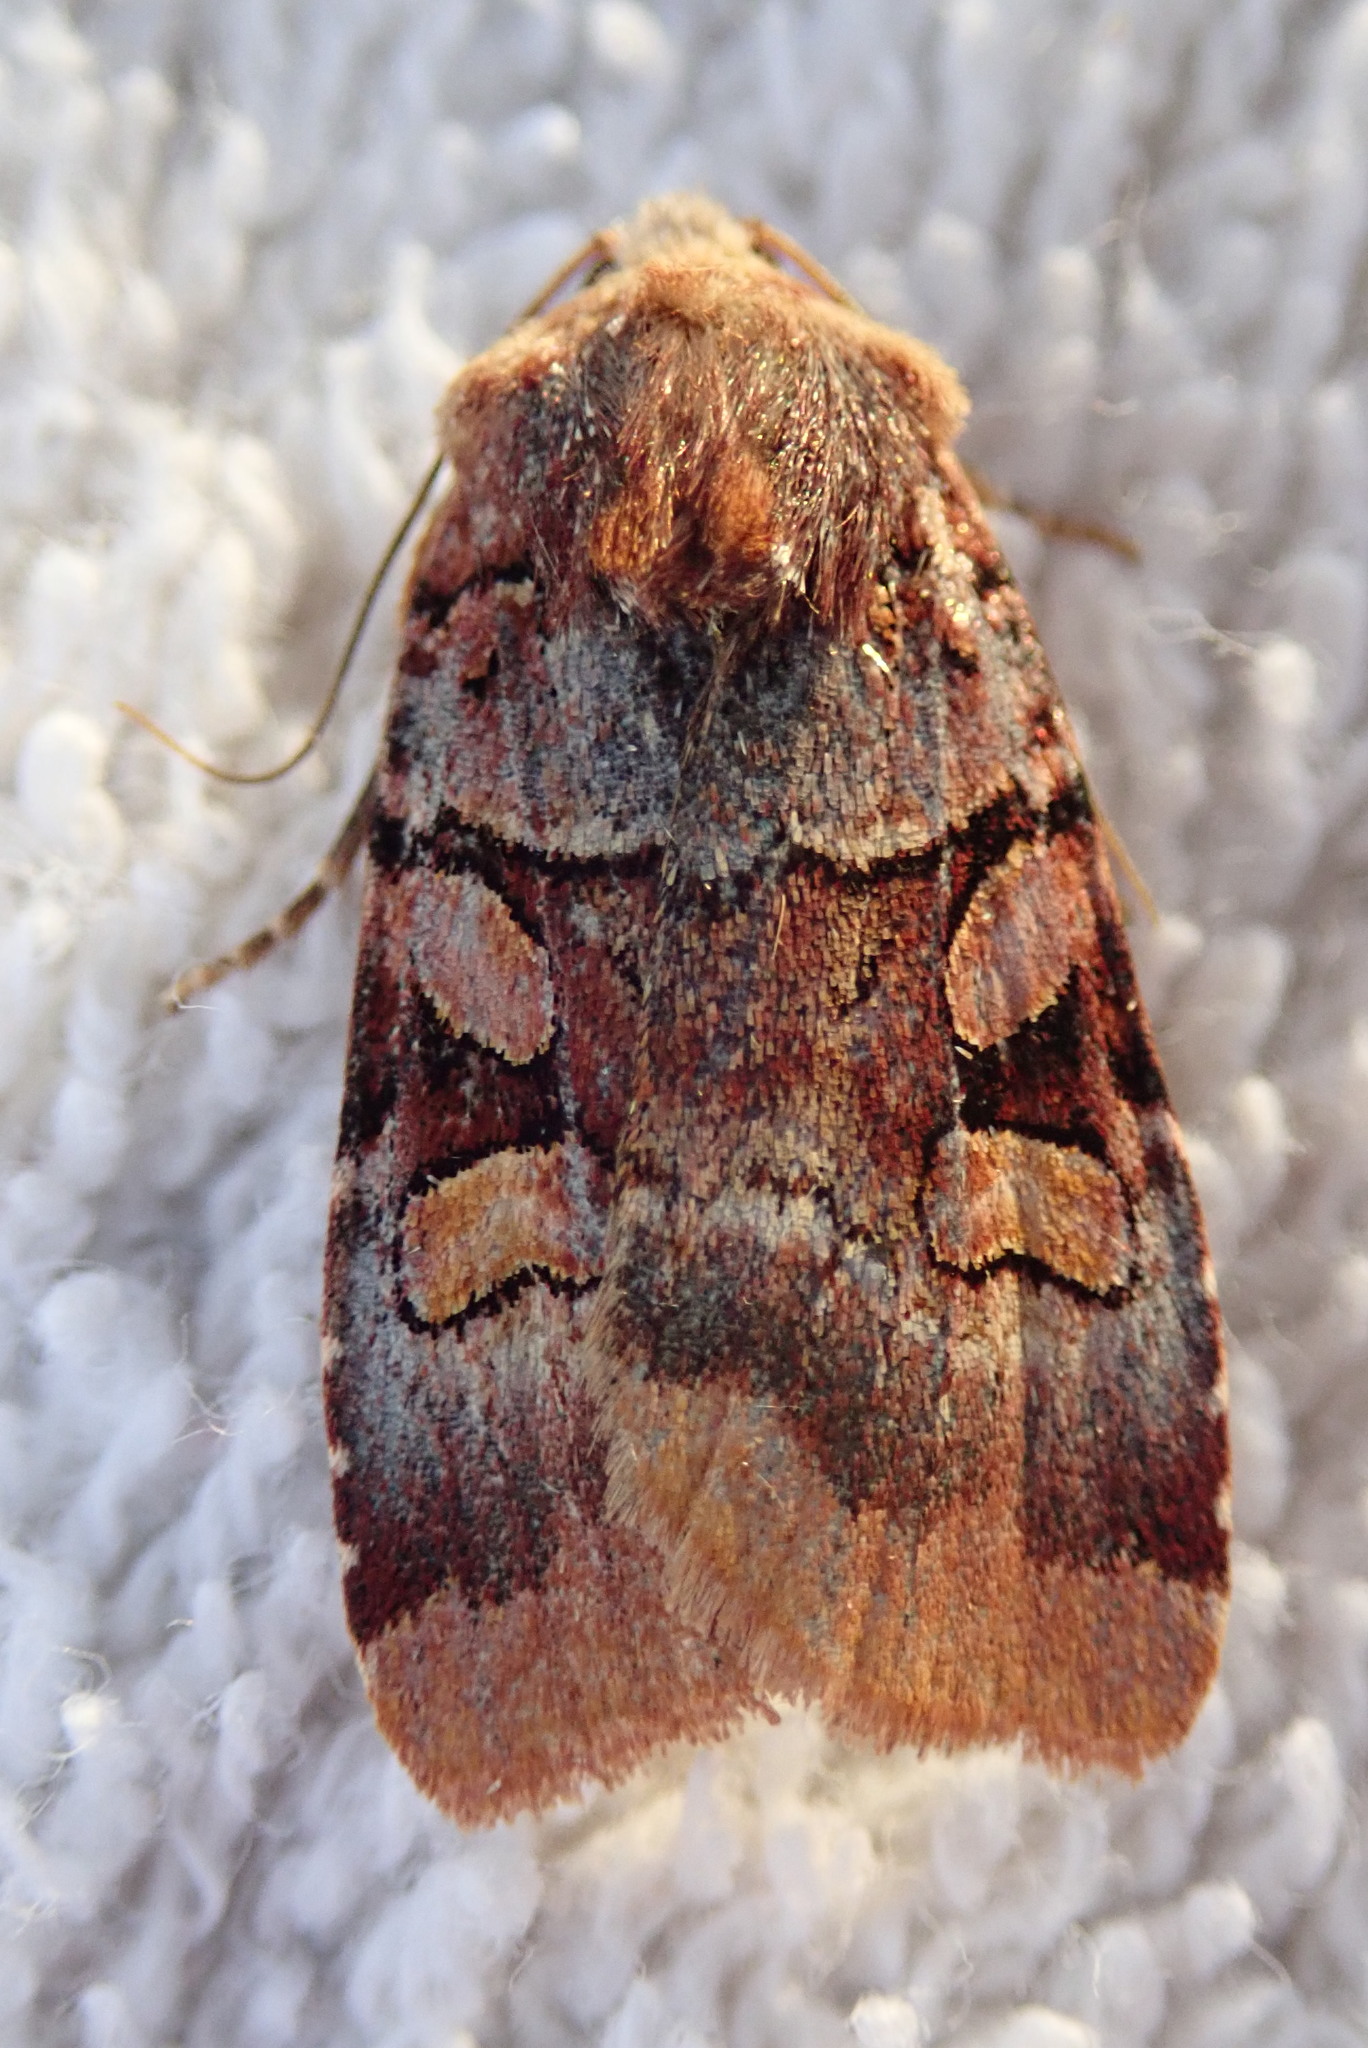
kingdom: Animalia
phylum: Arthropoda
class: Insecta
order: Lepidoptera
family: Noctuidae
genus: Xestia
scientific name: Xestia oblata
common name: Rosy dart
